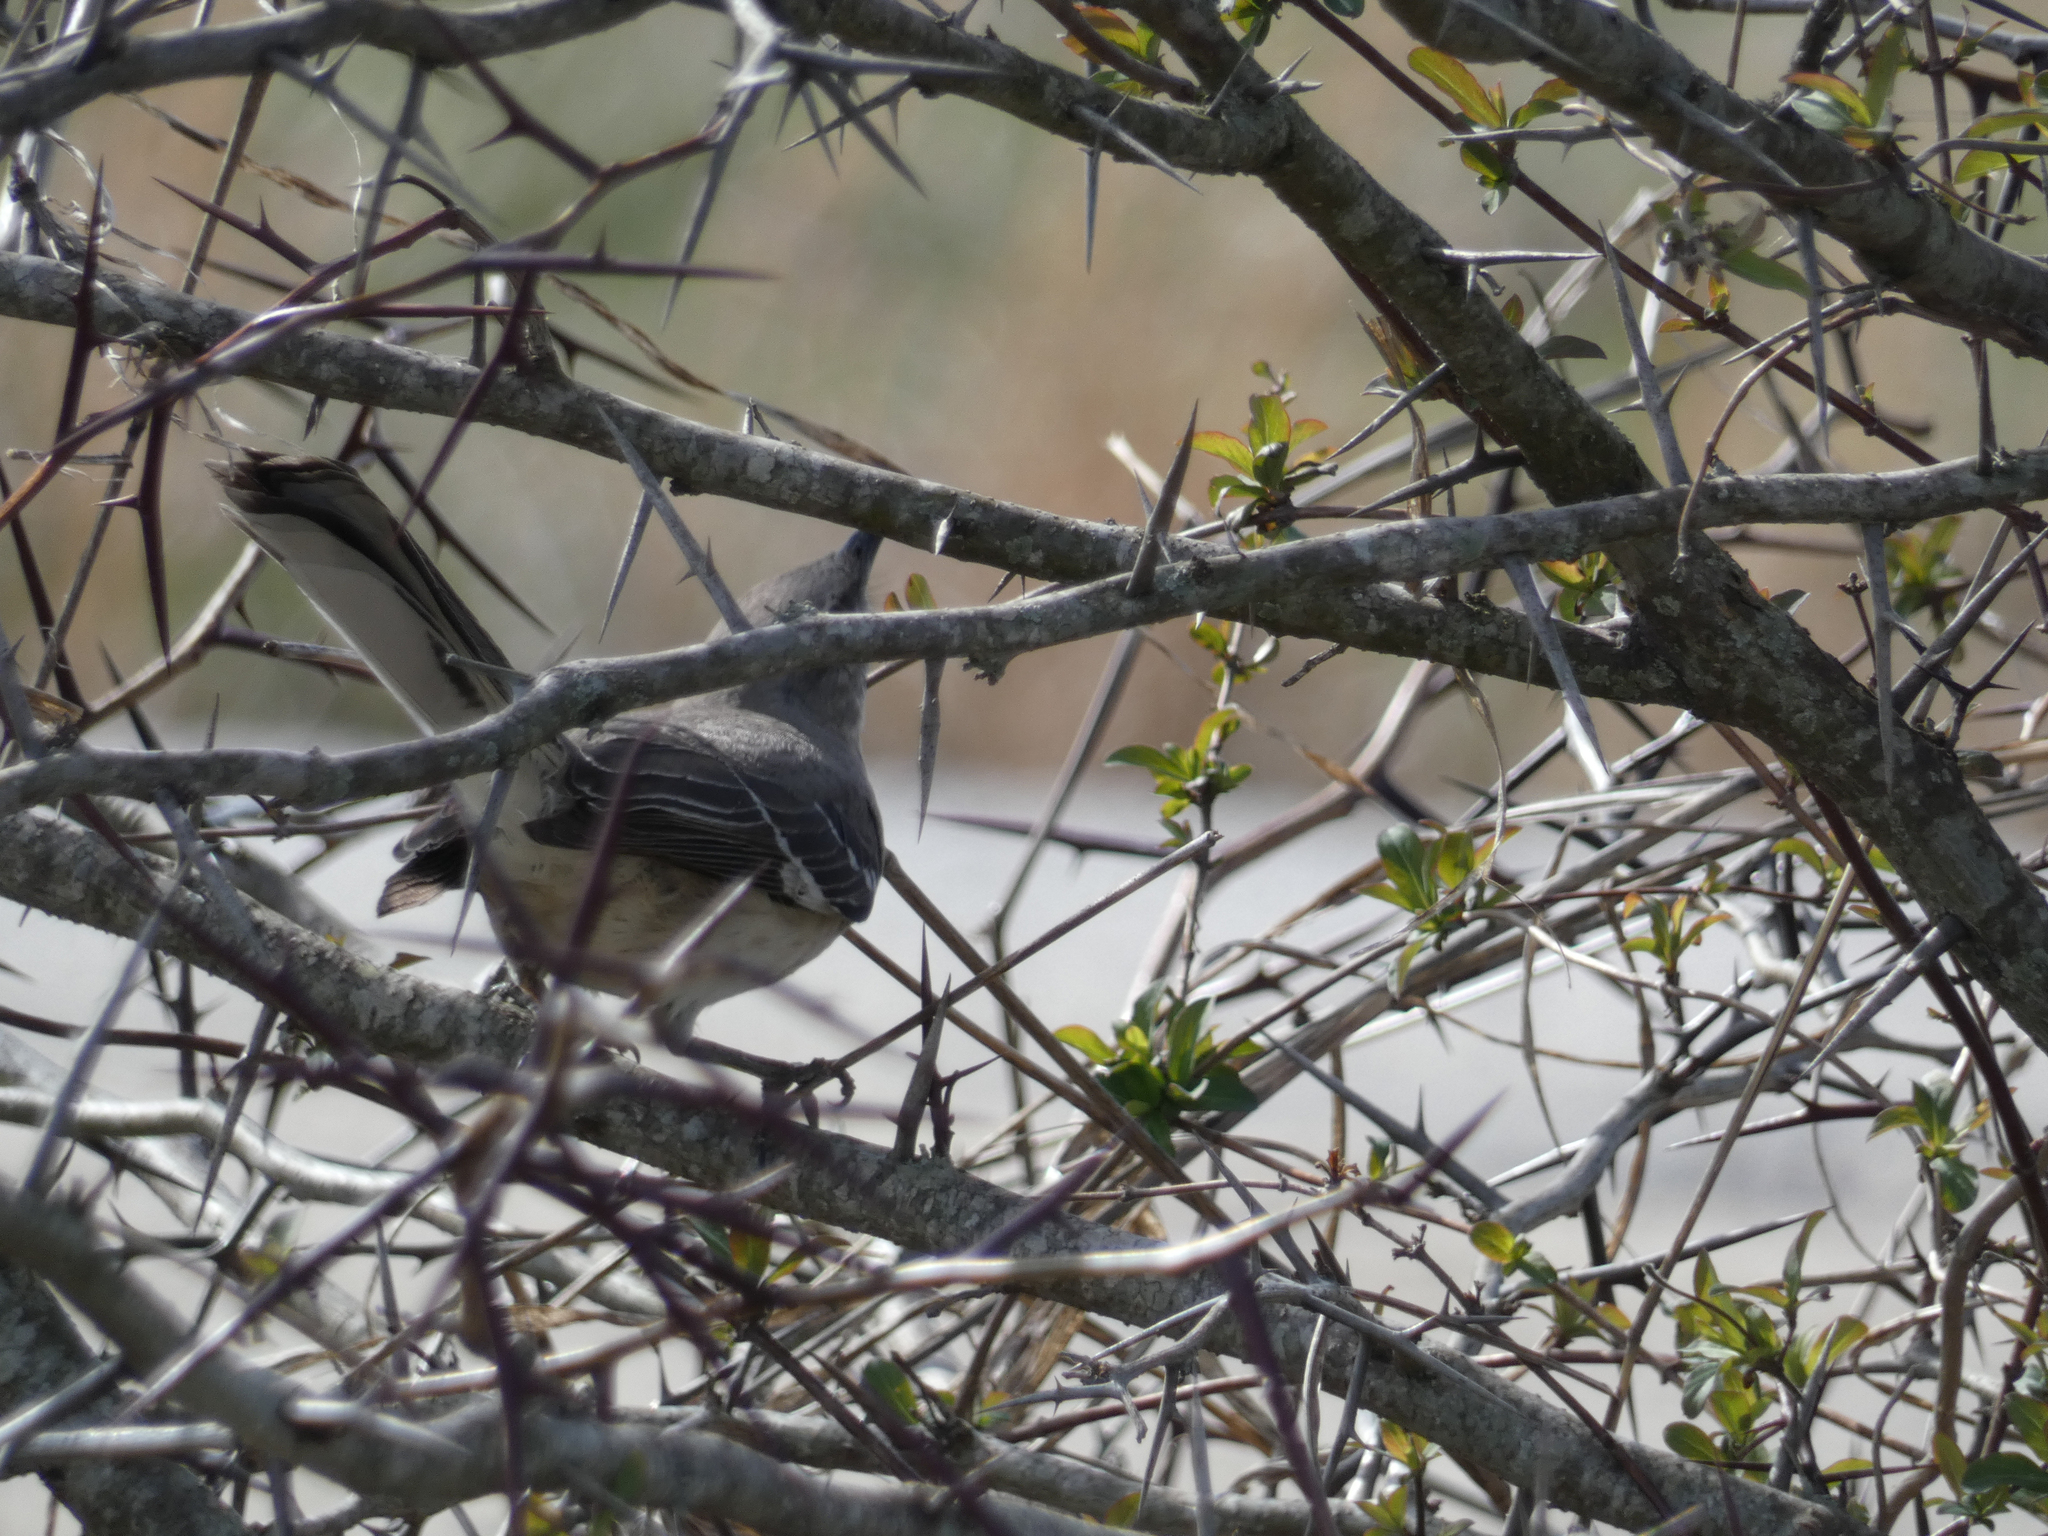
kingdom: Animalia
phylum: Chordata
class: Aves
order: Passeriformes
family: Mimidae
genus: Mimus
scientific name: Mimus polyglottos
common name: Northern mockingbird
